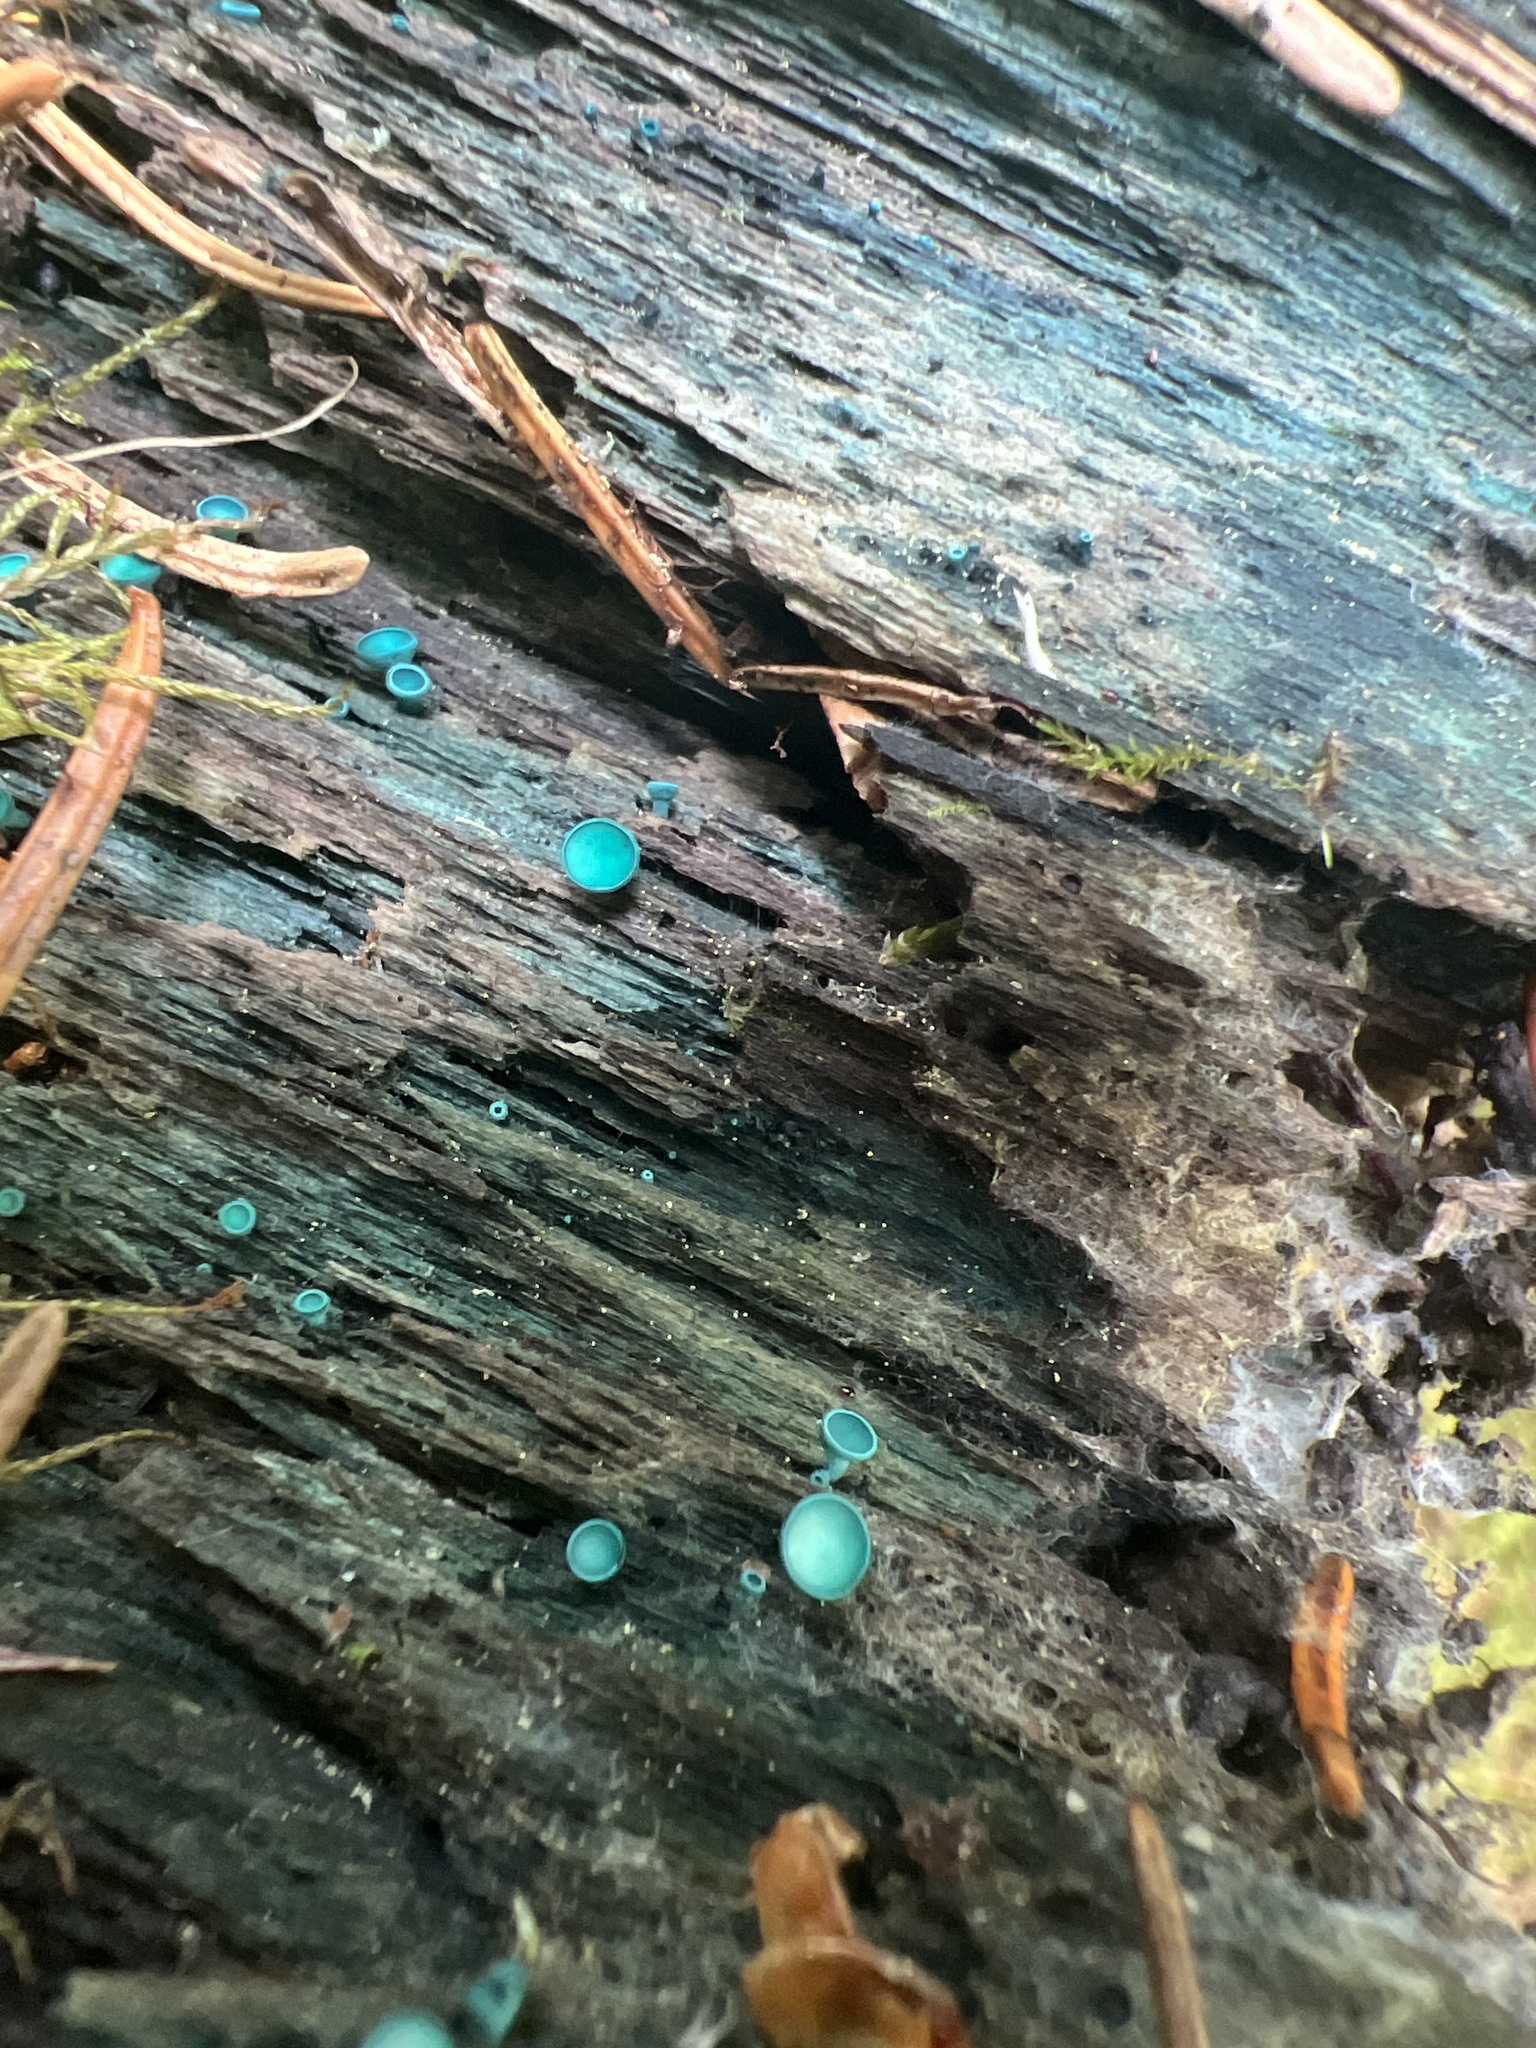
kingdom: Fungi
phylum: Ascomycota
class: Leotiomycetes
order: Helotiales
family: Chlorociboriaceae
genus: Chlorociboria
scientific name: Chlorociboria aeruginosa
